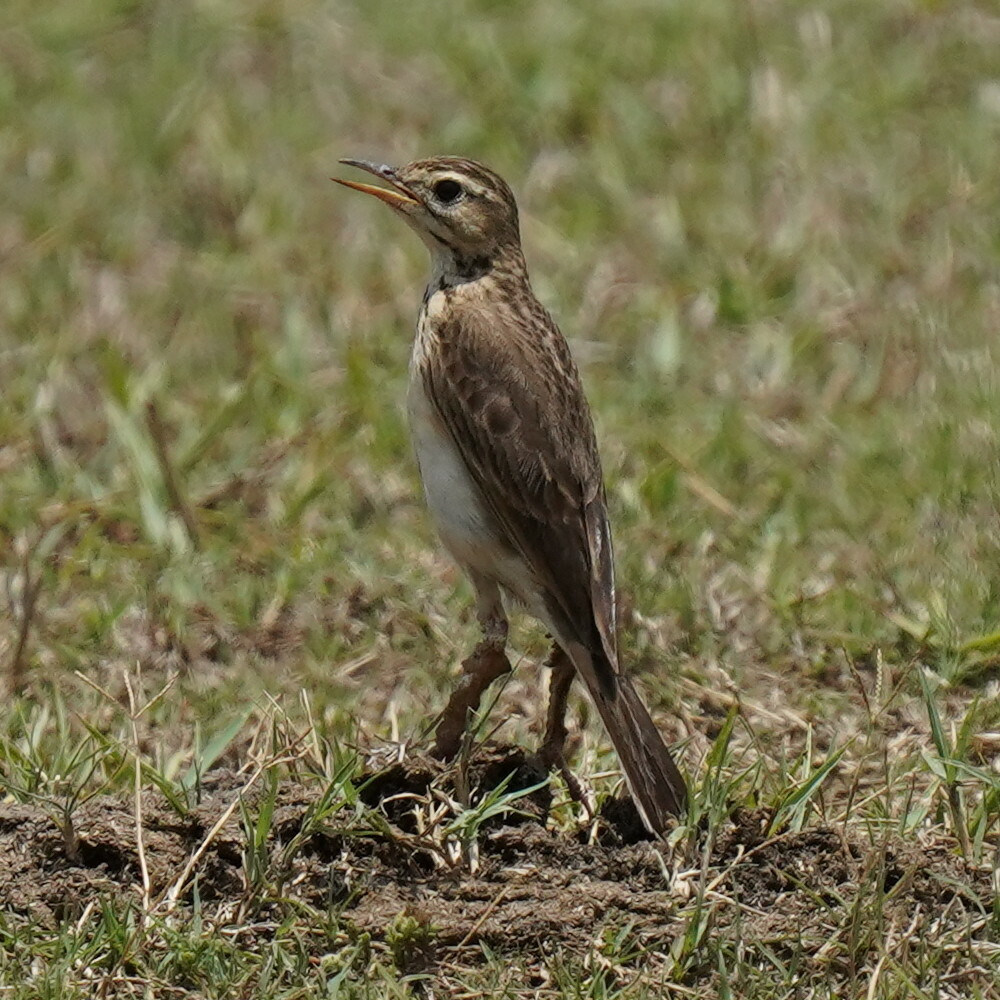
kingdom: Animalia
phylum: Chordata
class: Aves
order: Passeriformes
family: Motacillidae
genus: Anthus
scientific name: Anthus rufulus
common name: Paddyfield pipit
